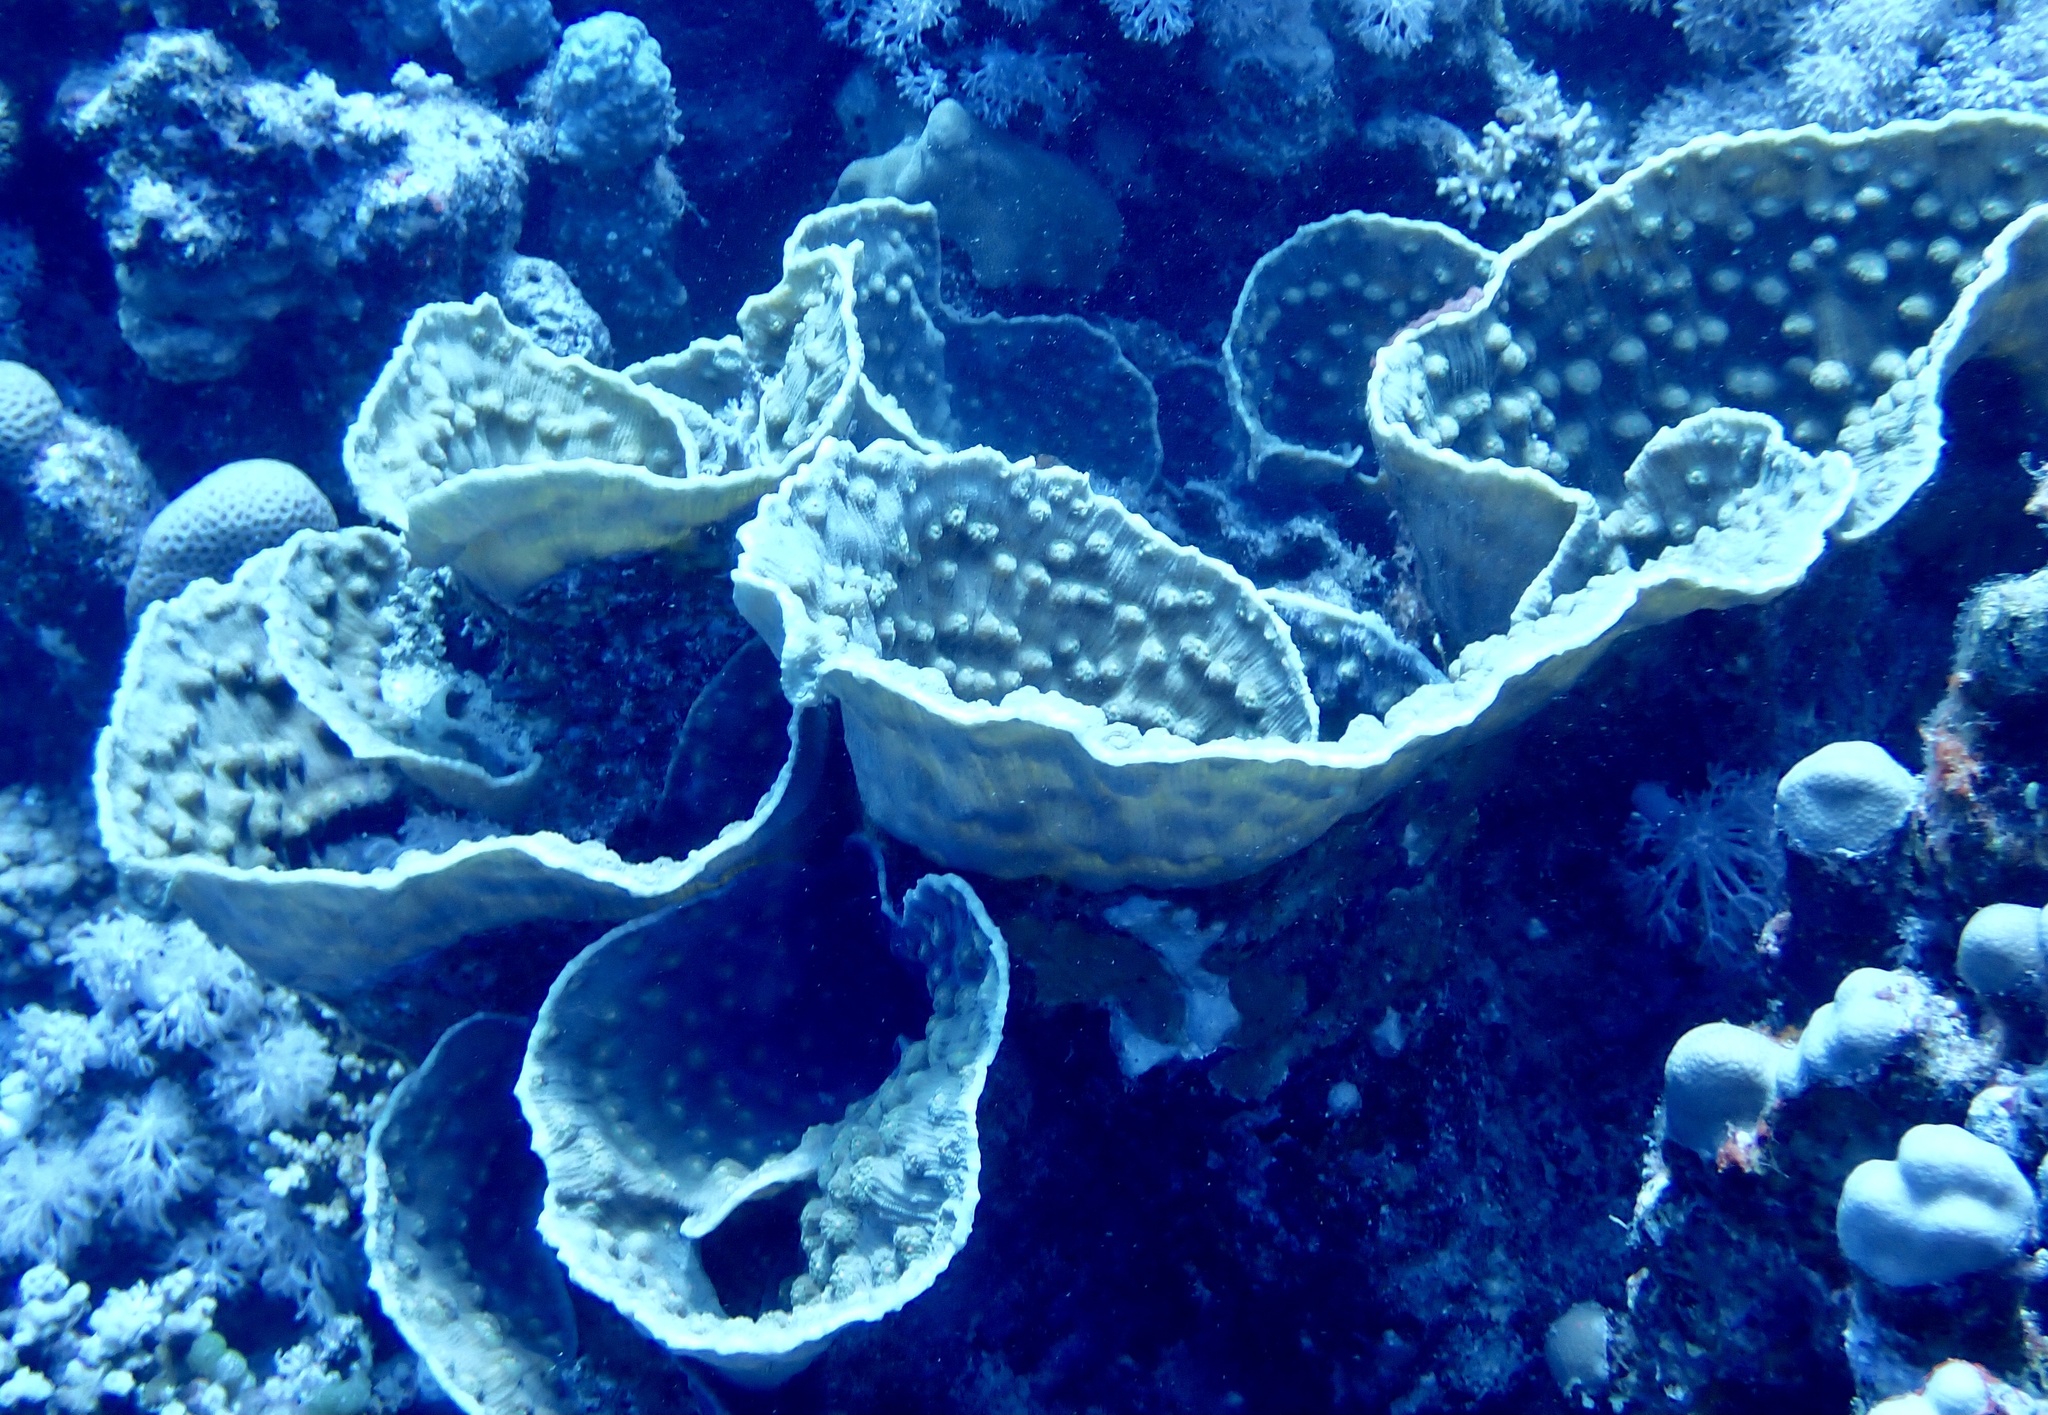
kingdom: Animalia
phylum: Cnidaria
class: Anthozoa
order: Scleractinia
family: Merulinidae
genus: Mycedium
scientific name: Mycedium umbra
